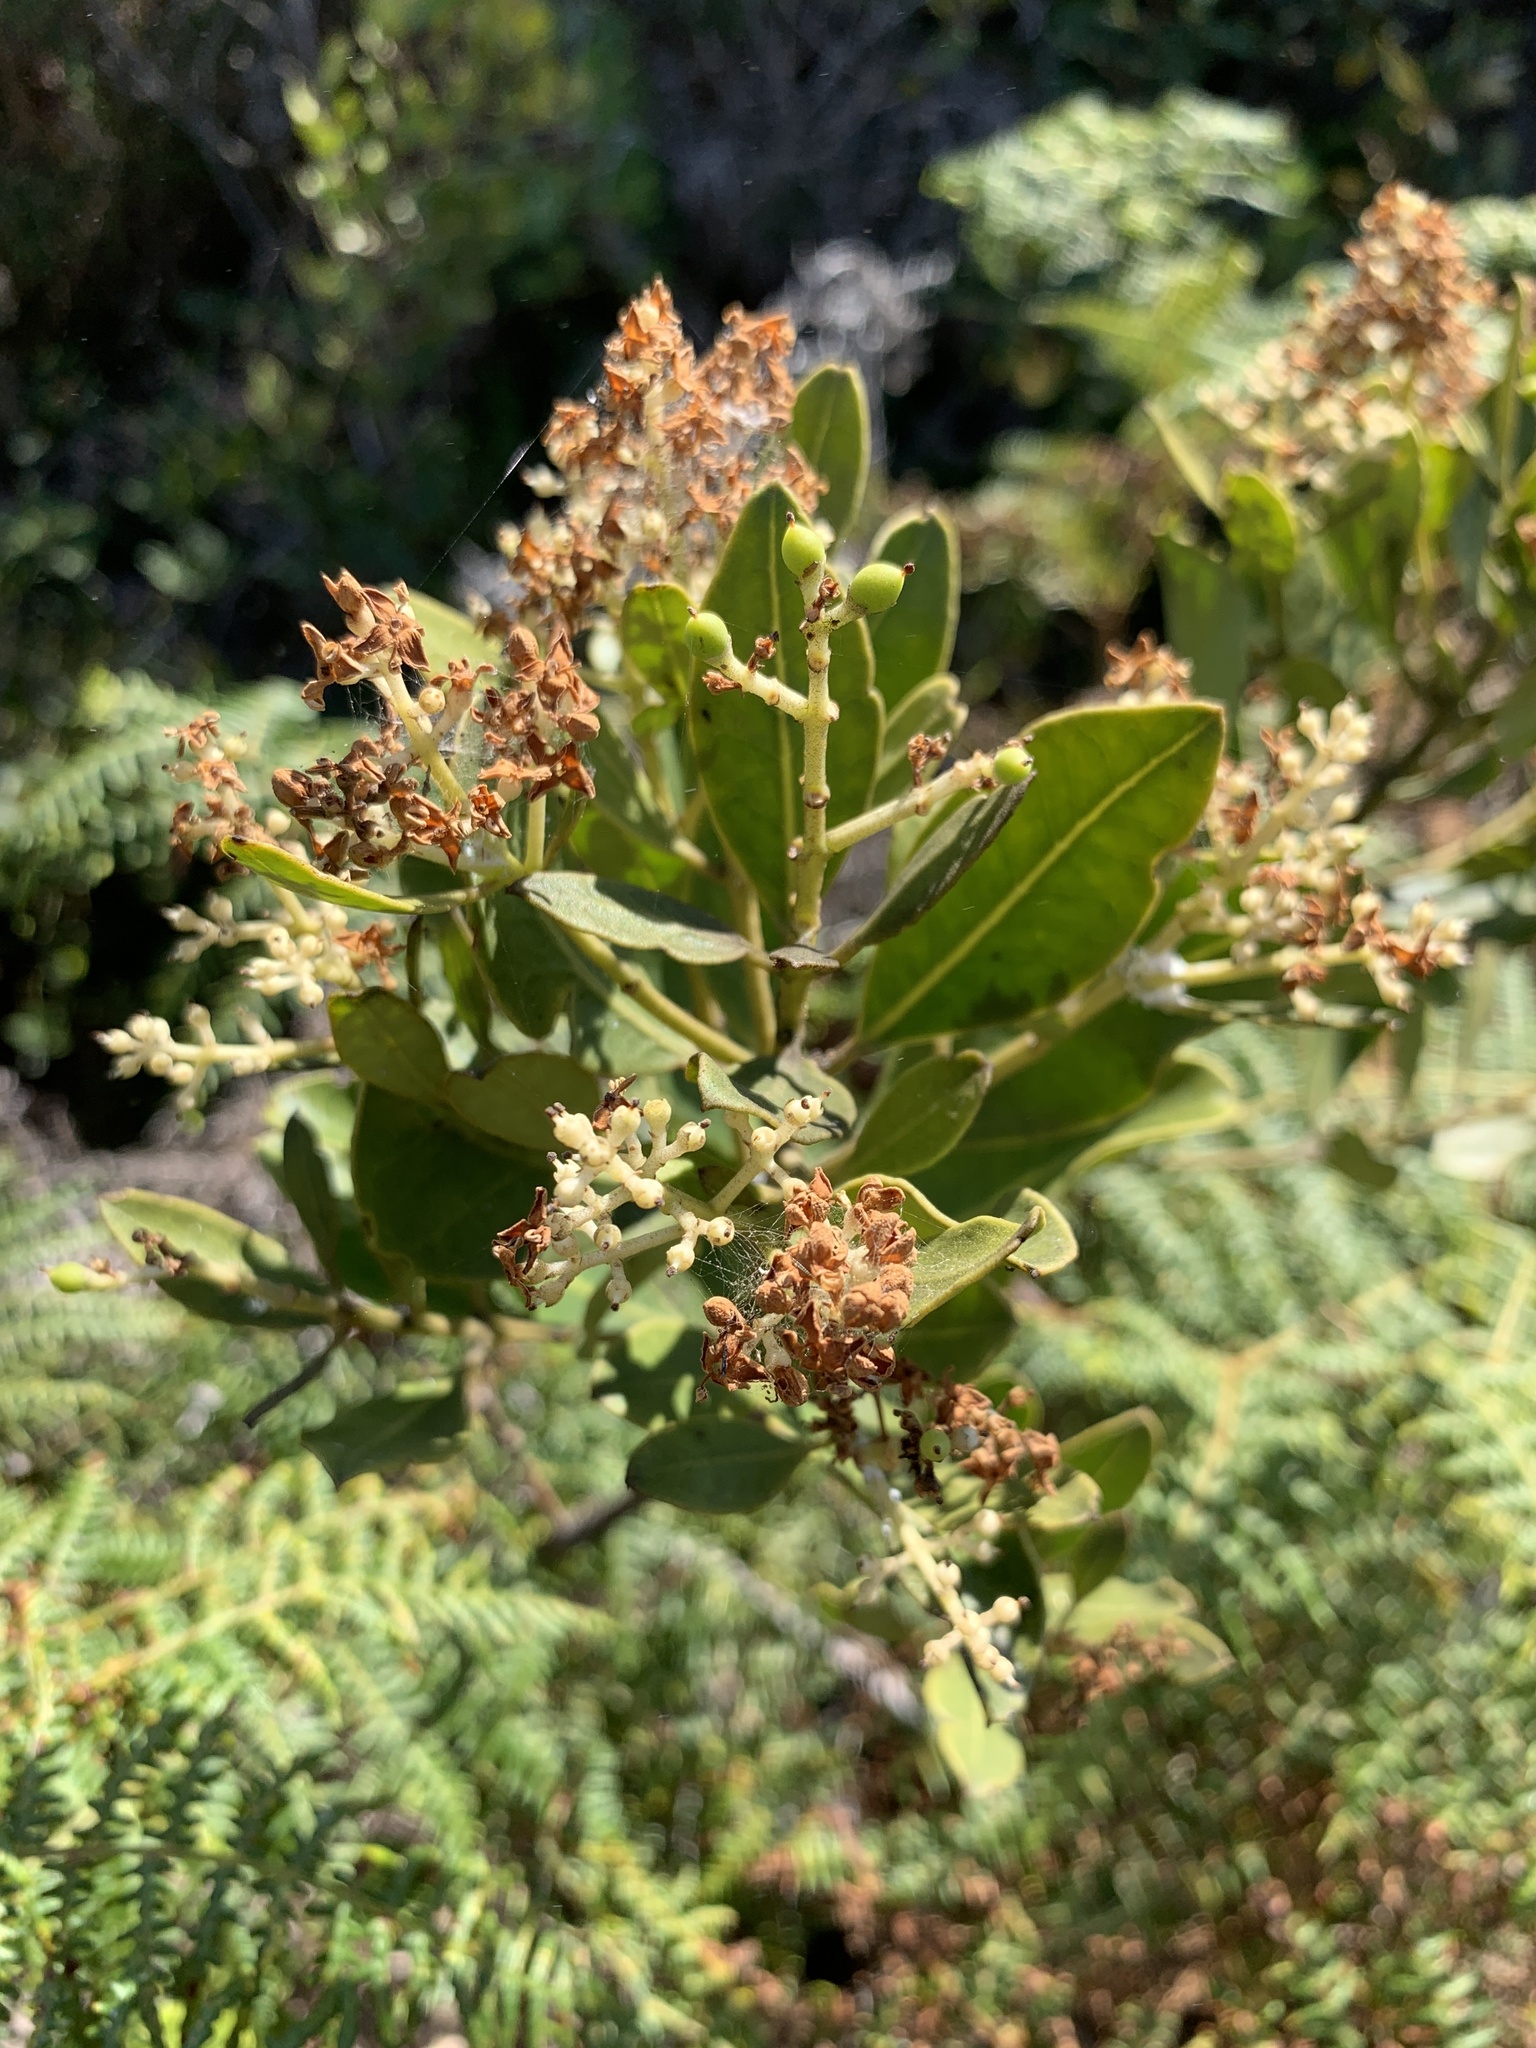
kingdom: Plantae
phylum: Tracheophyta
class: Magnoliopsida
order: Lamiales
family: Oleaceae
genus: Olea
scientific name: Olea capensis
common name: Black ironwood
